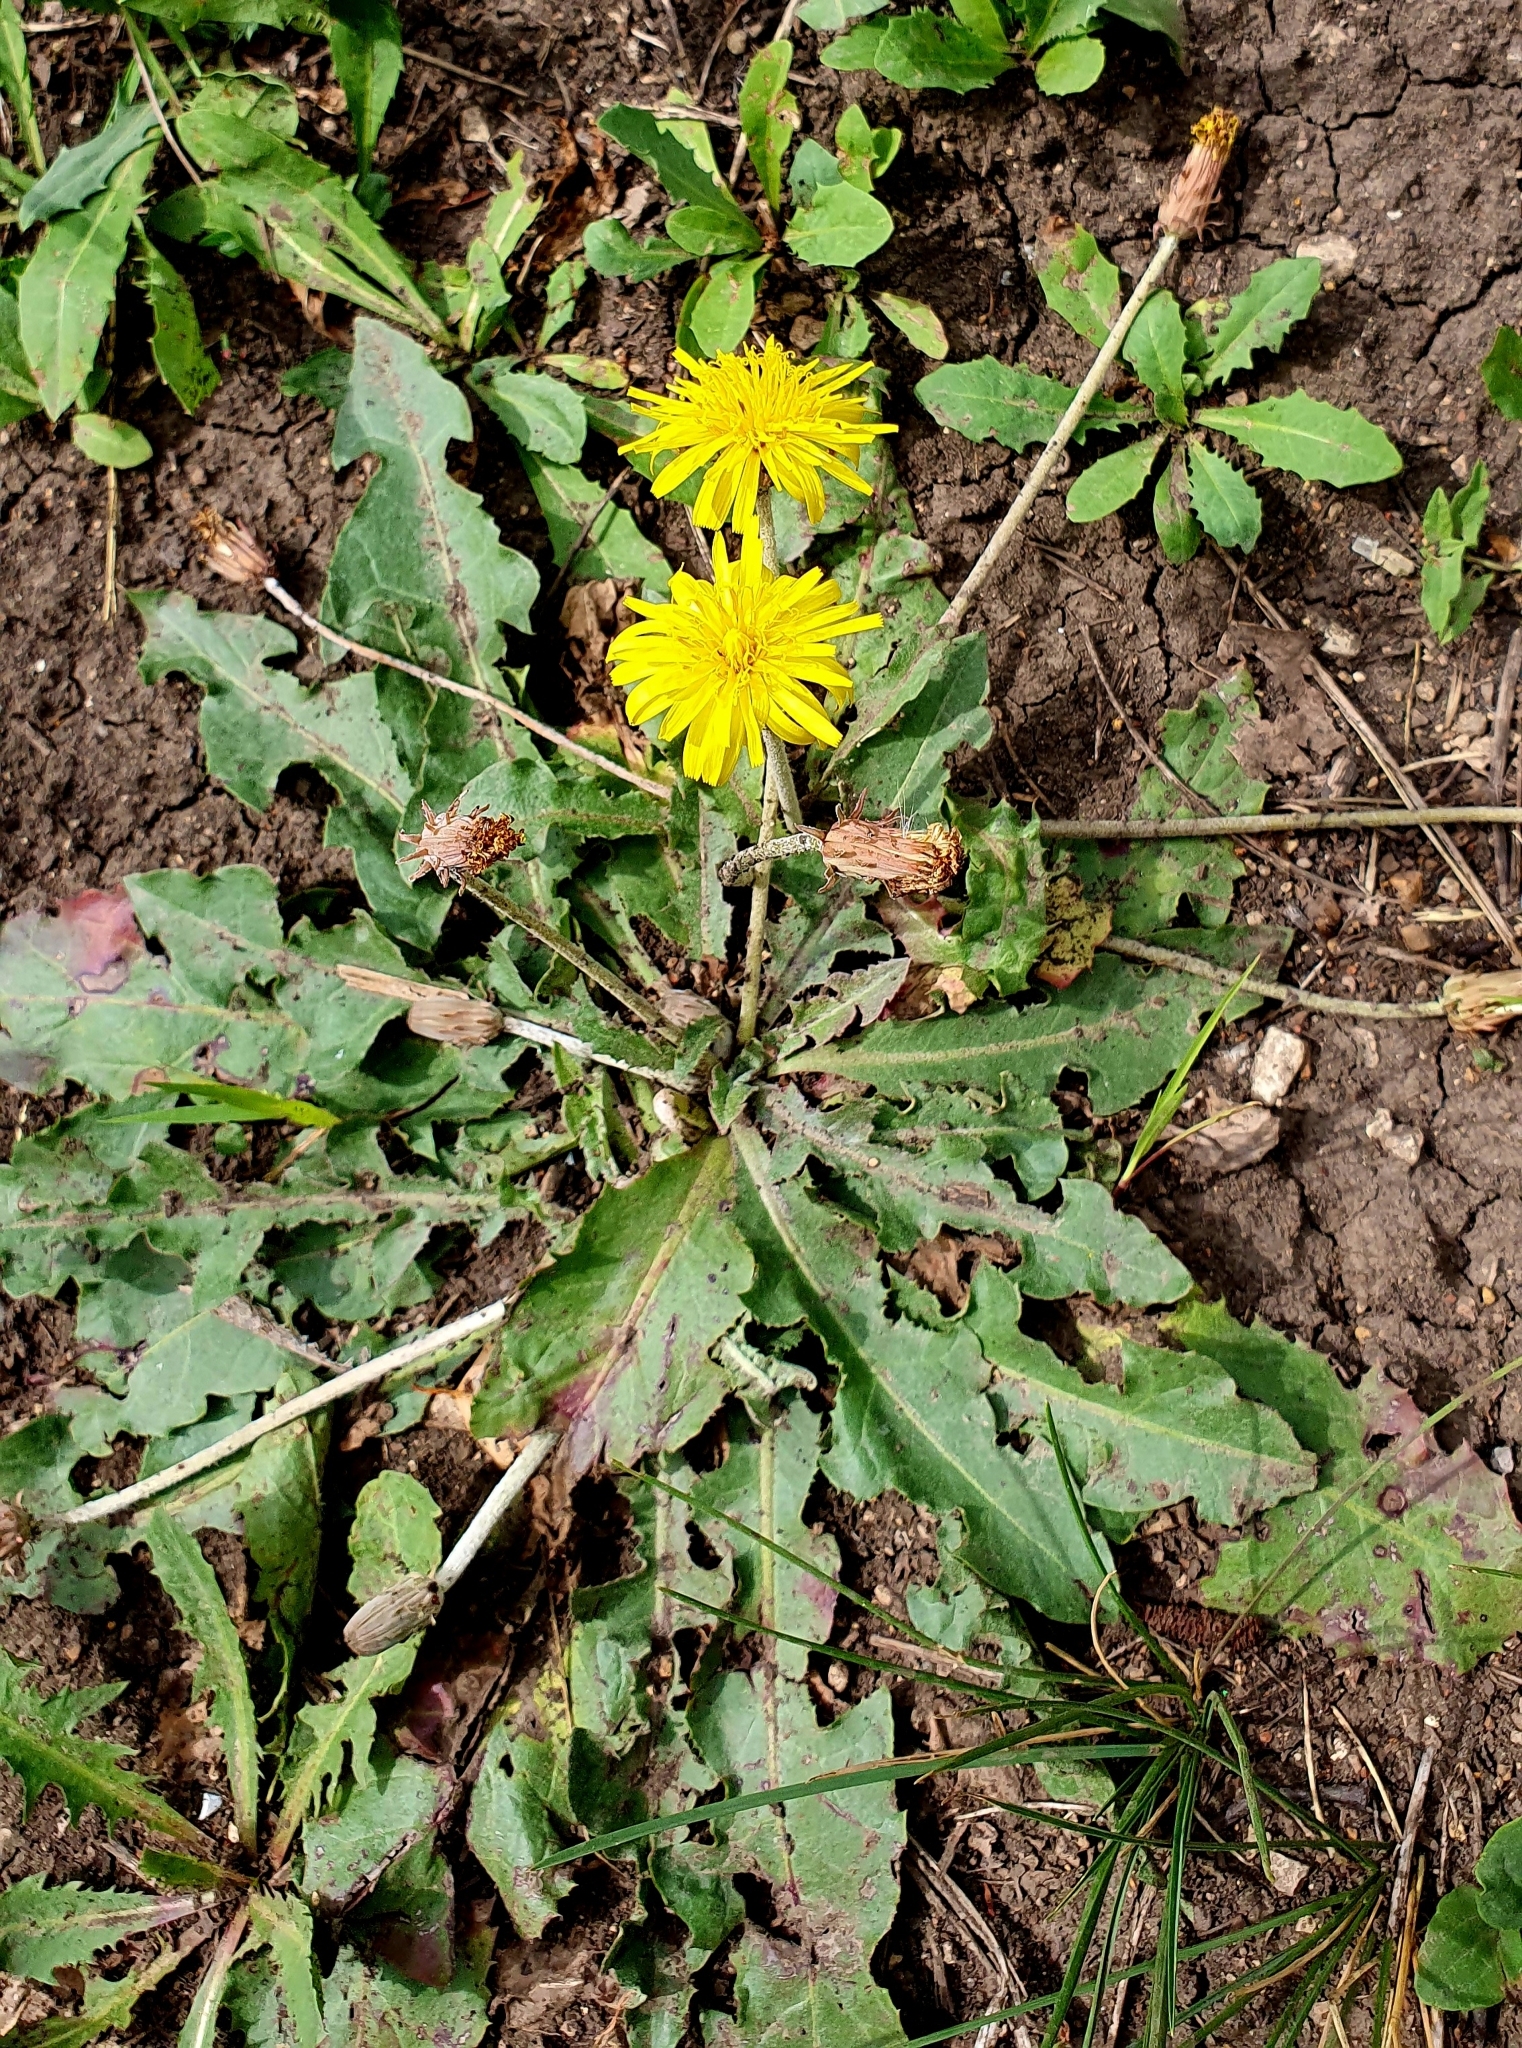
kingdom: Plantae
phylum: Tracheophyta
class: Magnoliopsida
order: Asterales
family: Asteraceae
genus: Taraxacum
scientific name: Taraxacum serotinum
